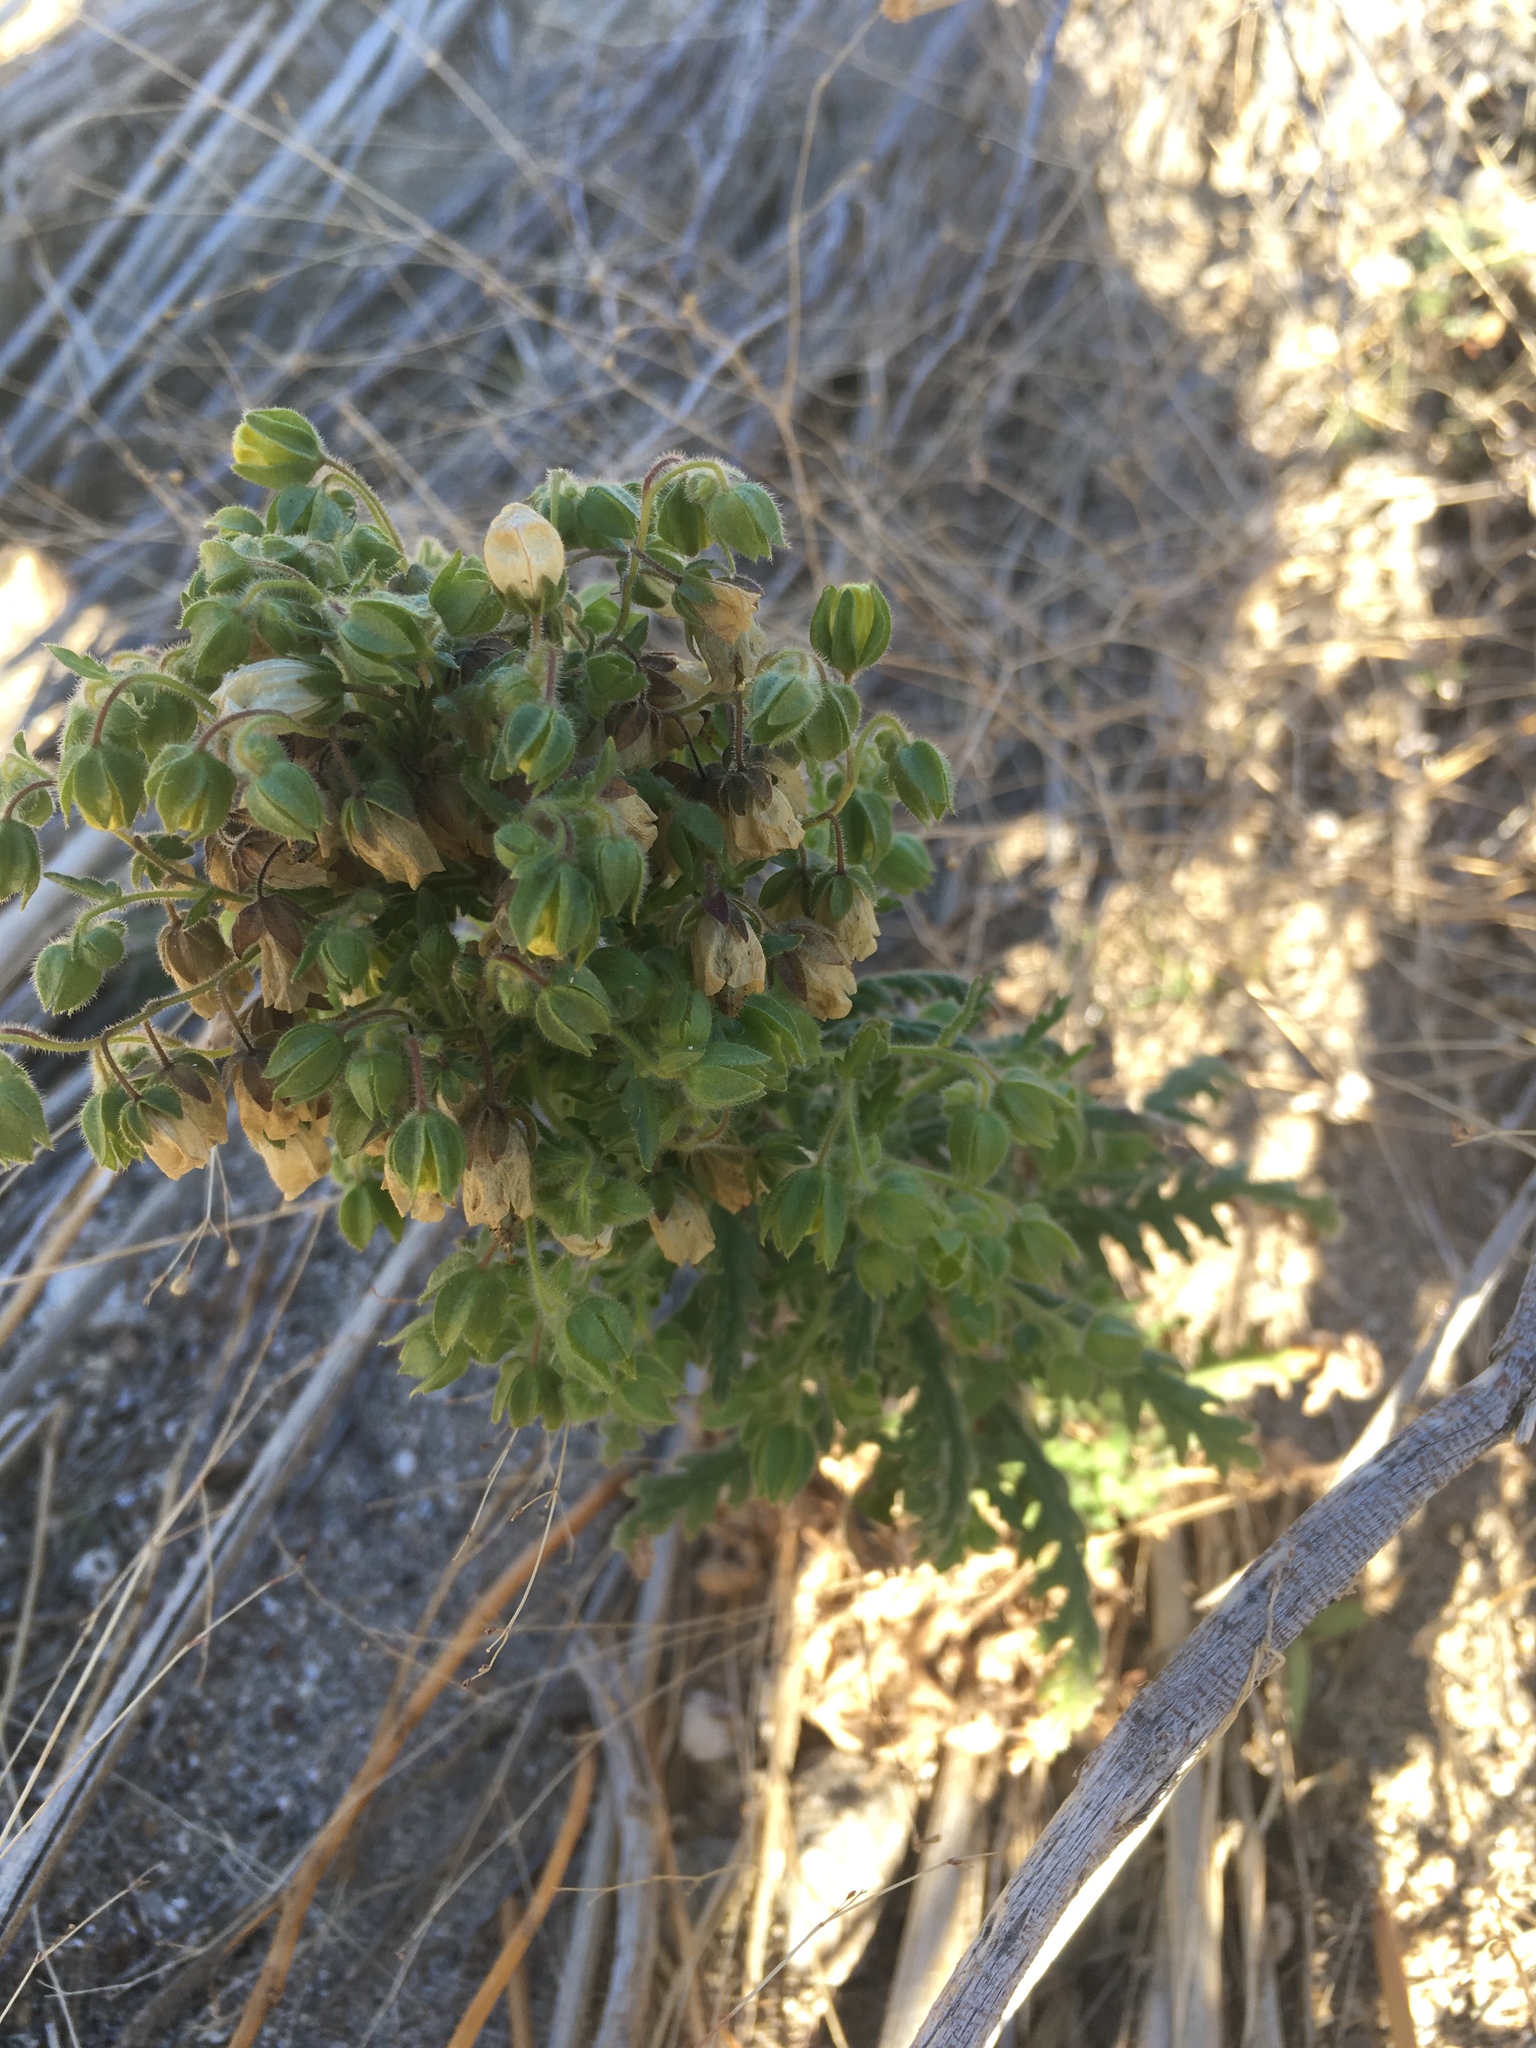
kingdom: Plantae
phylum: Tracheophyta
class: Magnoliopsida
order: Boraginales
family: Hydrophyllaceae
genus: Emmenanthe
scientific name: Emmenanthe penduliflora
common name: Whispering-bells
